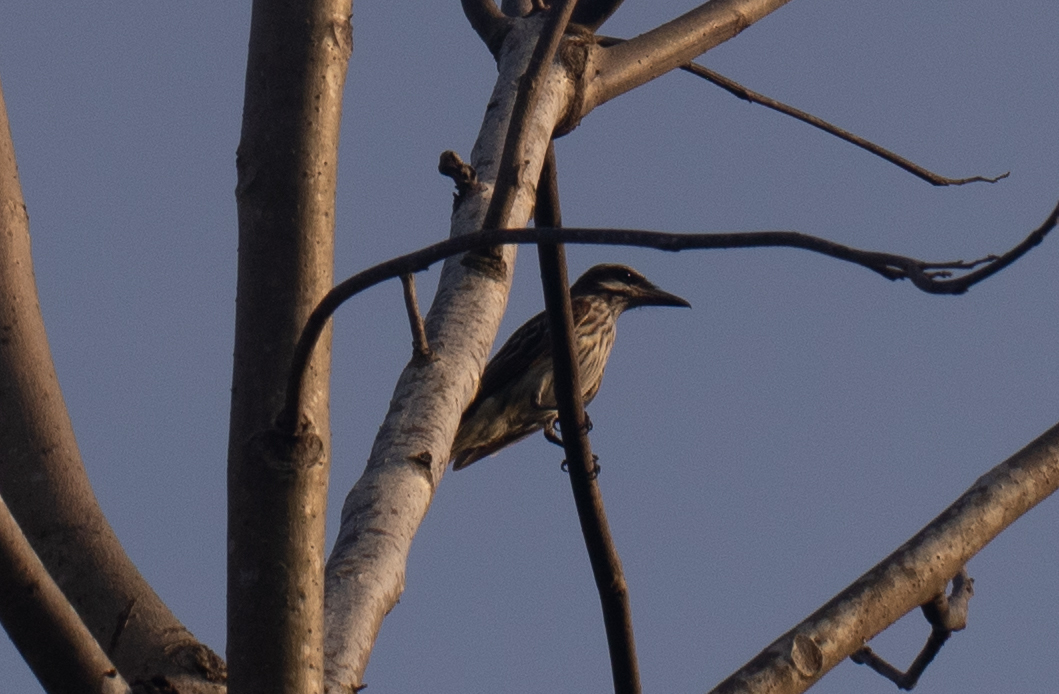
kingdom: Animalia
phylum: Chordata
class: Aves
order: Passeriformes
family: Tyrannidae
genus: Myiodynastes
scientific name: Myiodynastes maculatus
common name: Streaked flycatcher
